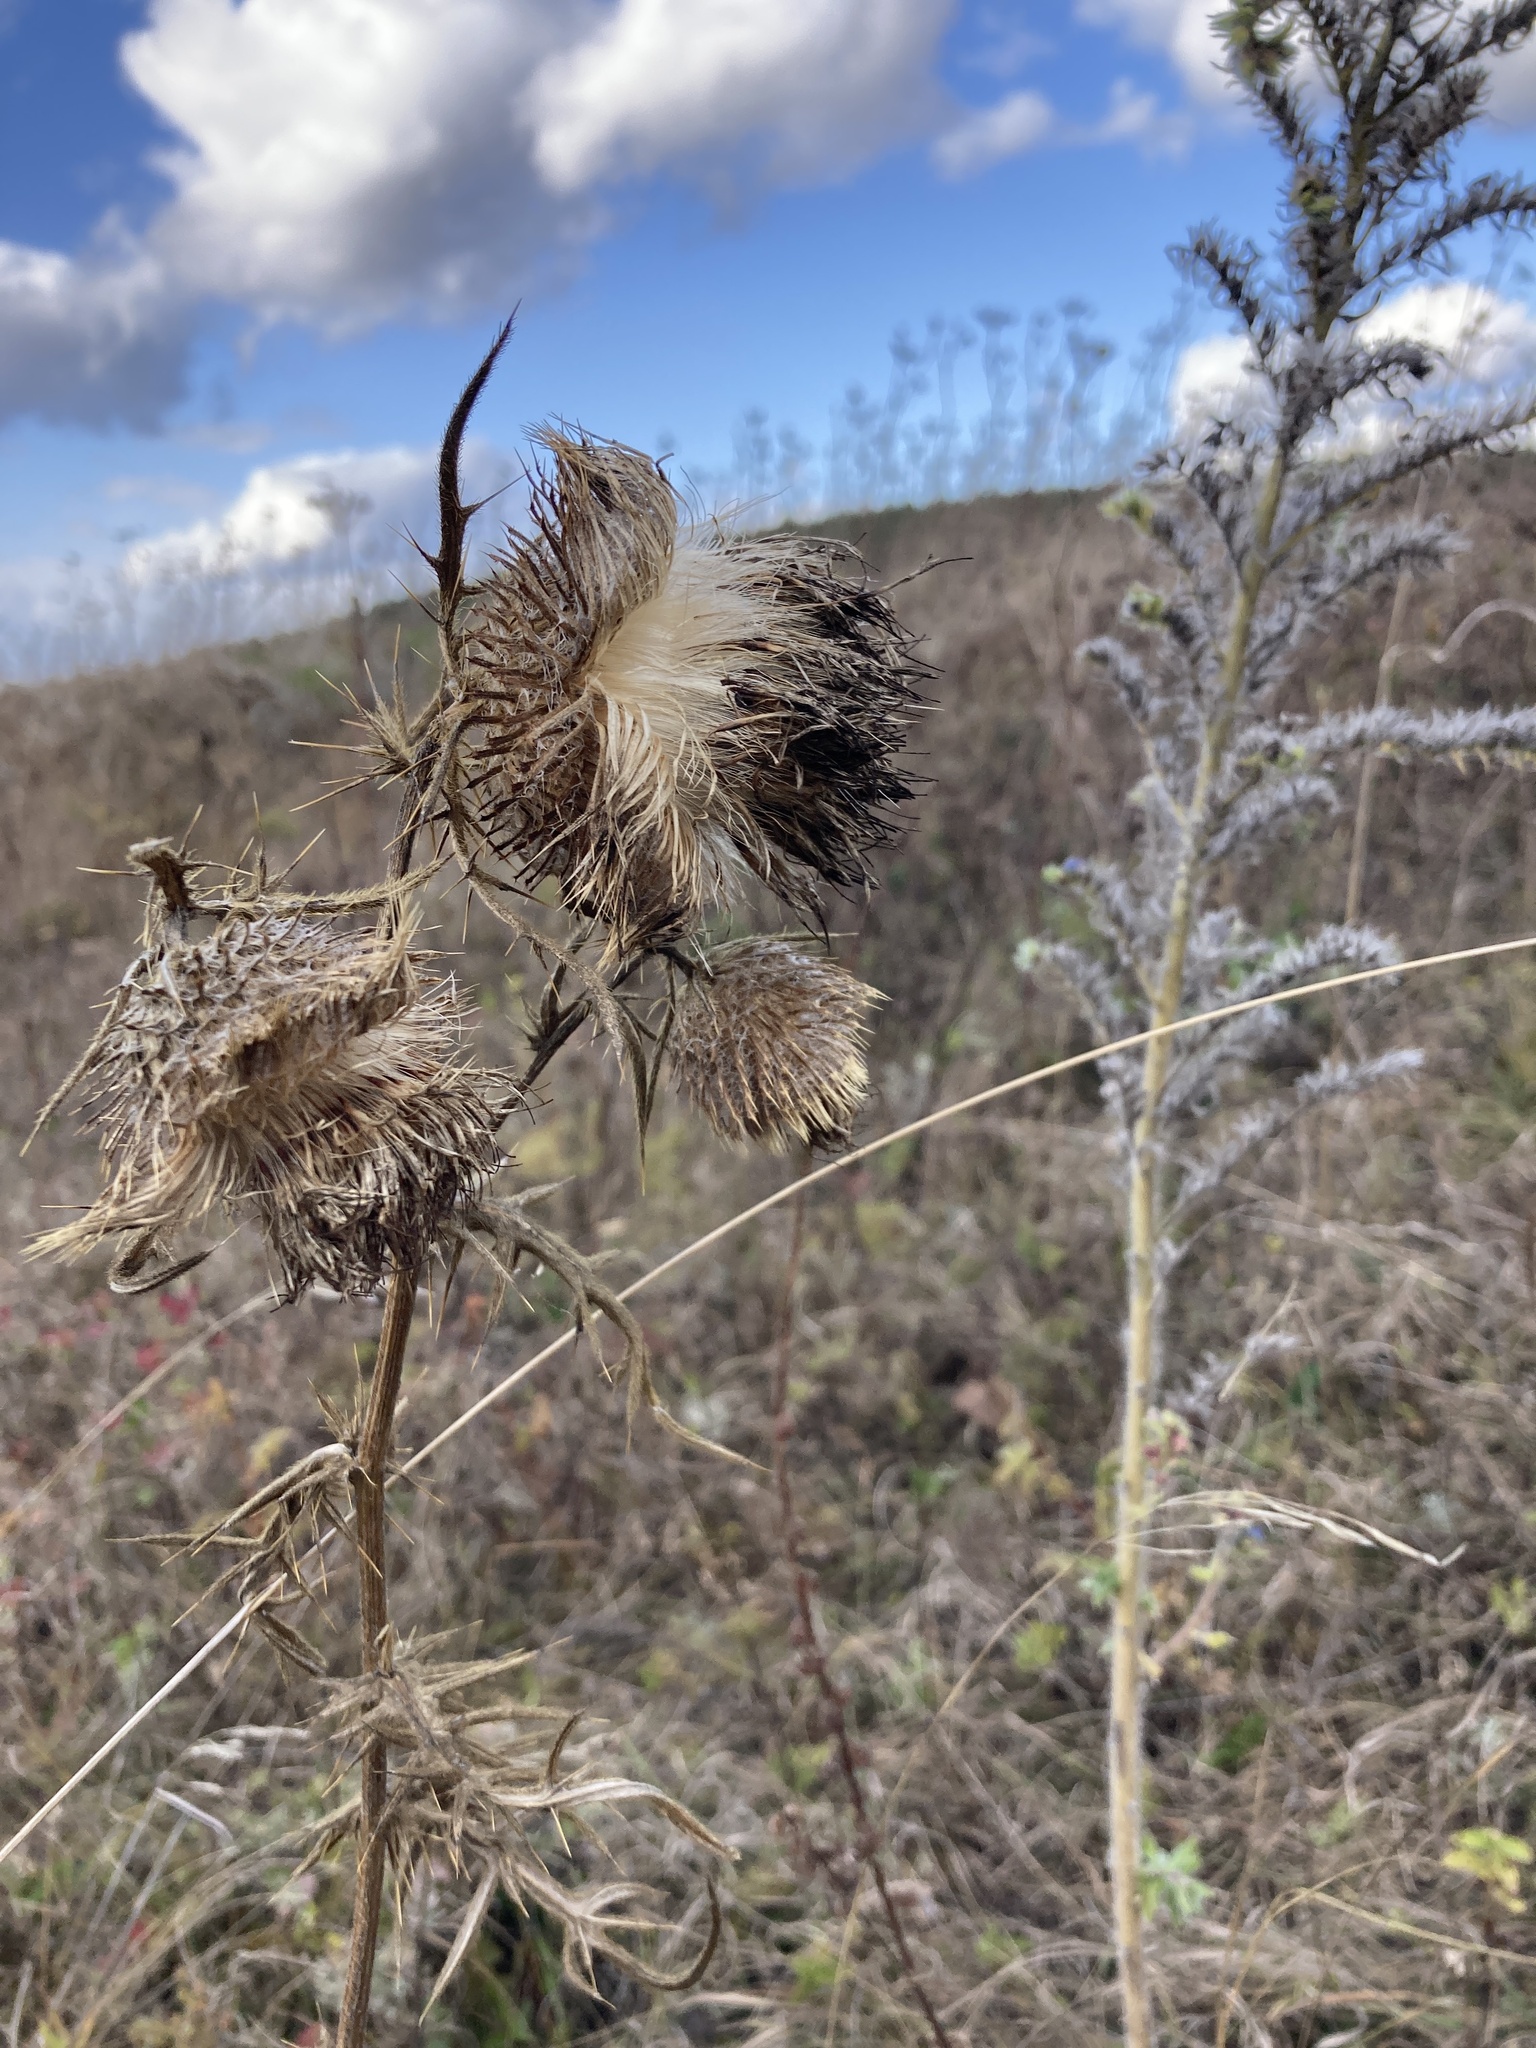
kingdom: Plantae
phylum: Tracheophyta
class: Magnoliopsida
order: Asterales
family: Asteraceae
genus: Lophiolepis
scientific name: Lophiolepis decussata
